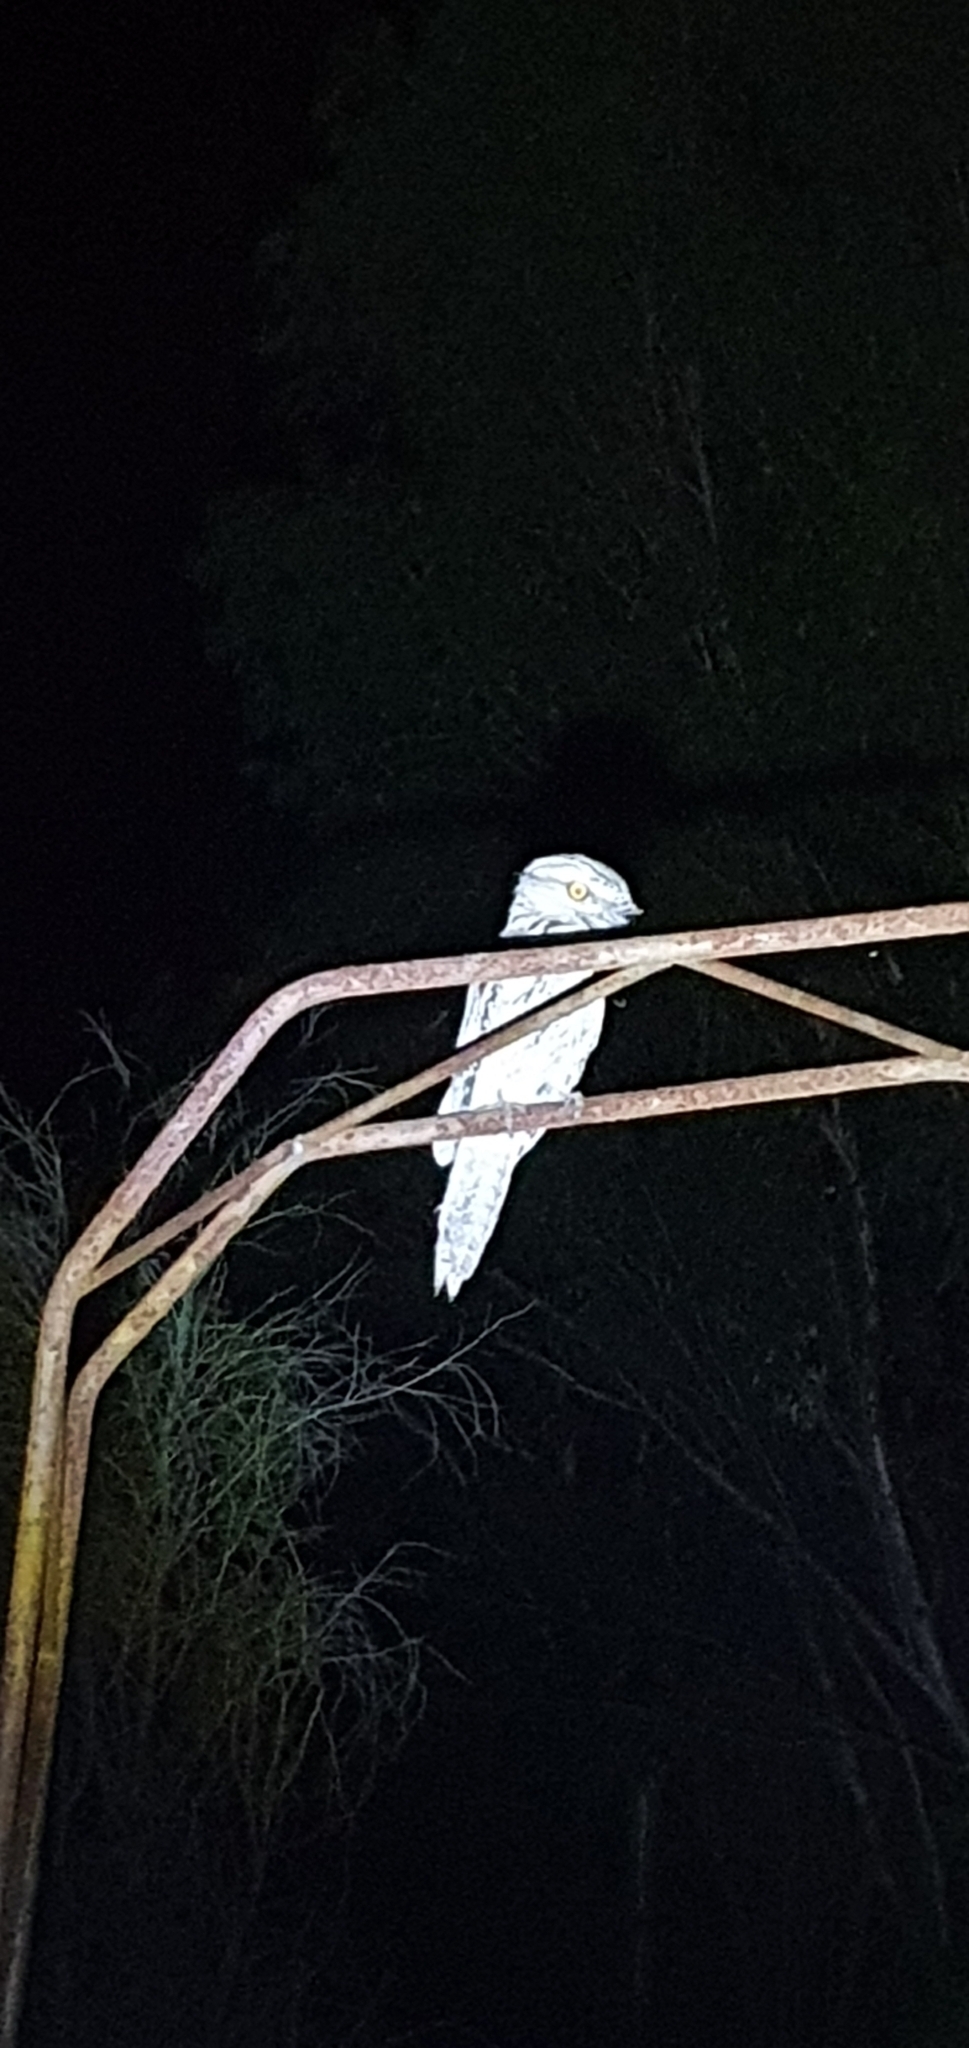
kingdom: Animalia
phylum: Chordata
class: Aves
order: Caprimulgiformes
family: Podargidae
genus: Podargus
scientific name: Podargus strigoides
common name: Tawny frogmouth
